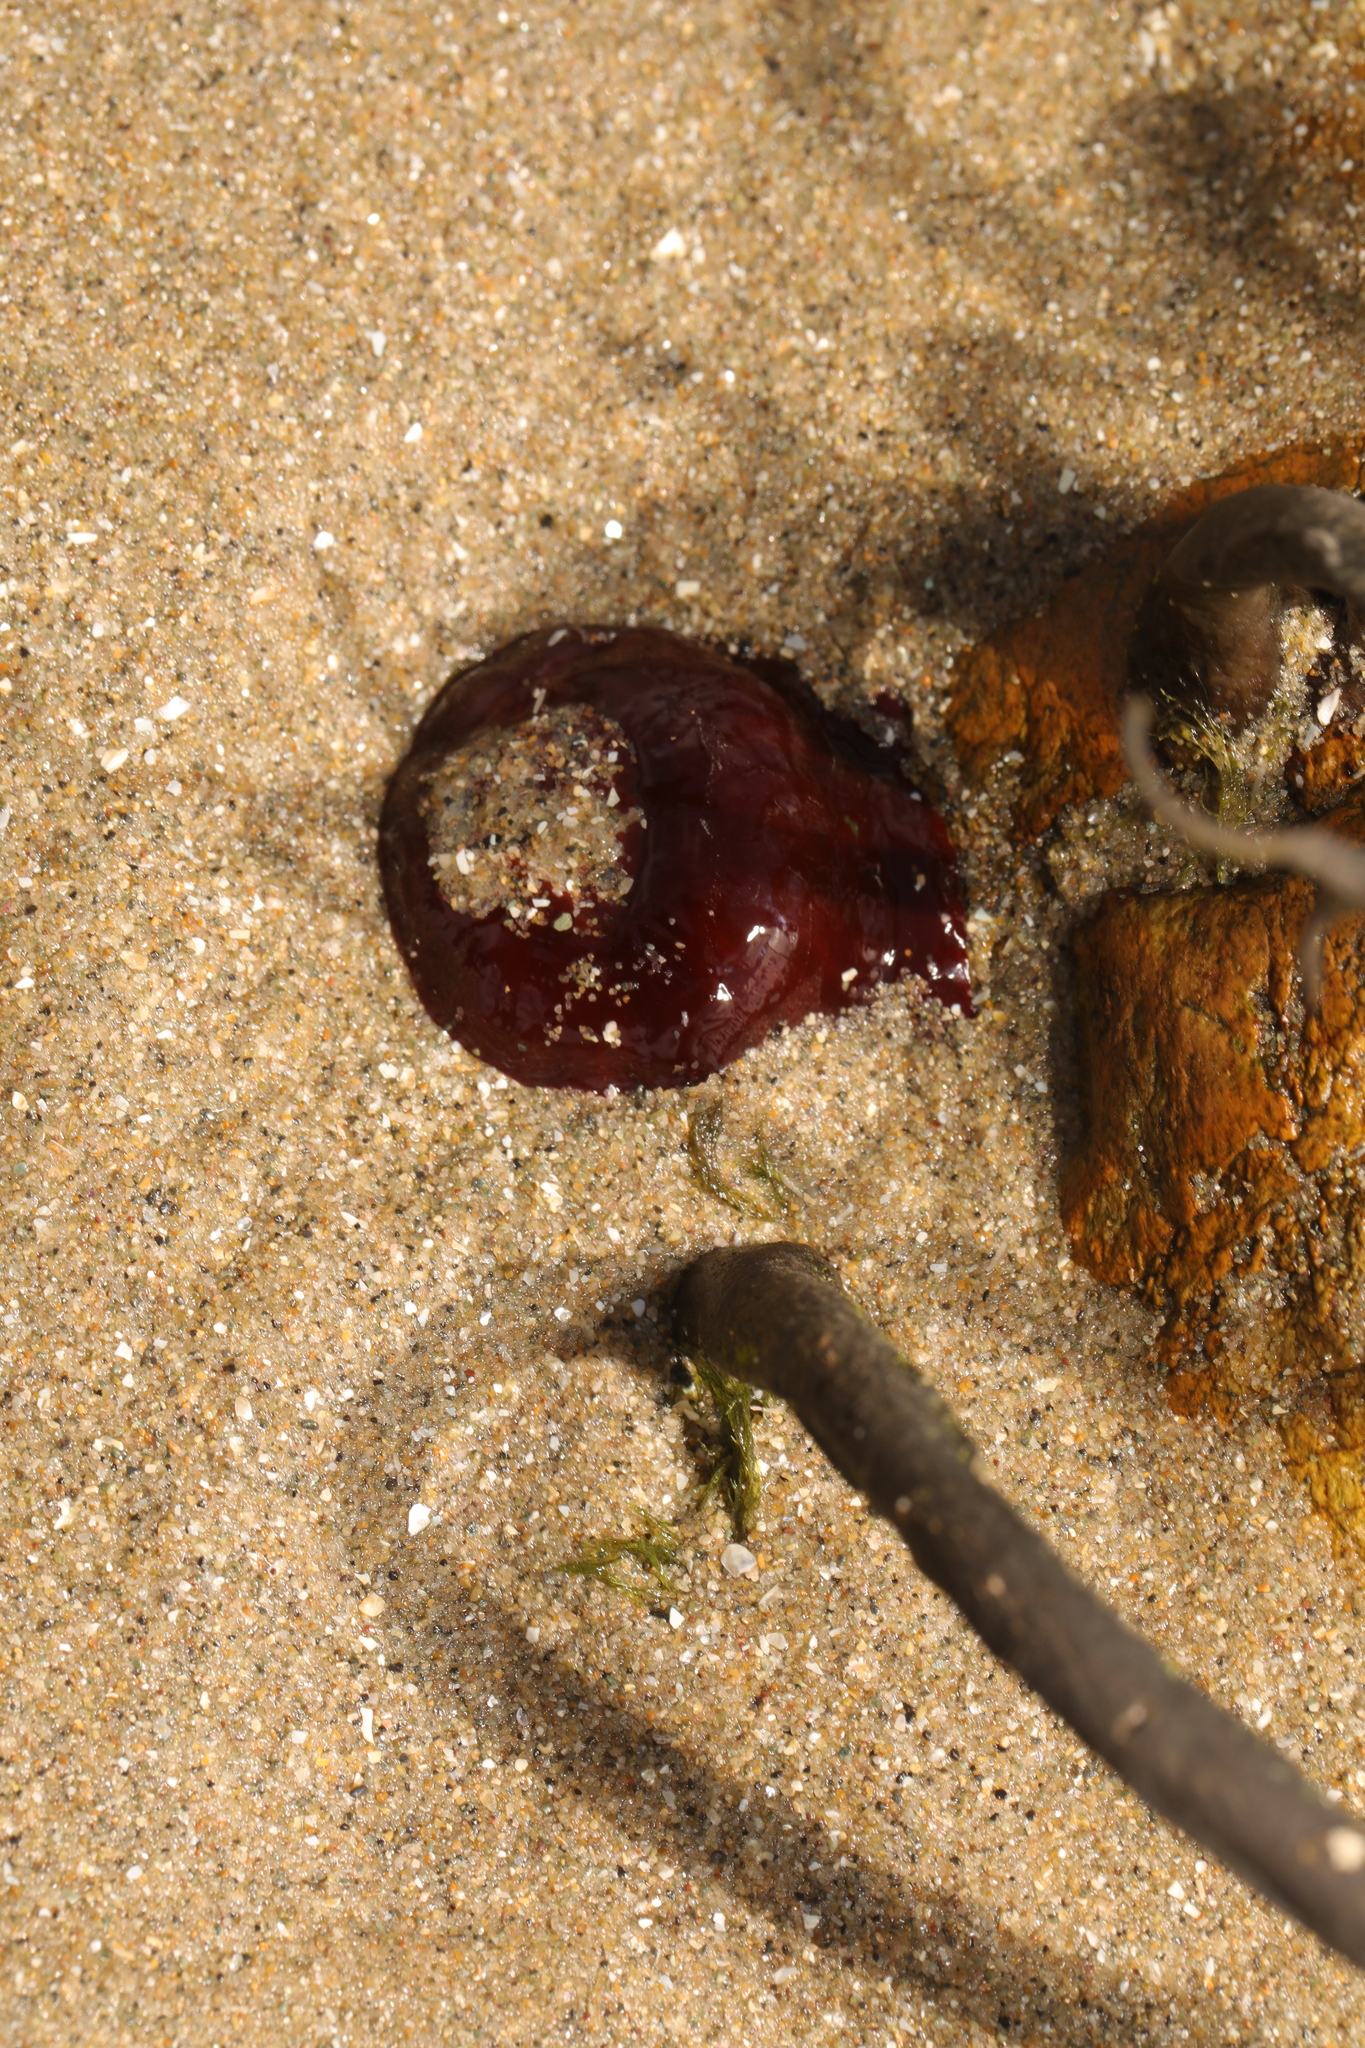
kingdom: Animalia
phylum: Cnidaria
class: Anthozoa
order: Actiniaria
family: Actiniidae
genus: Actinia
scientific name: Actinia equina
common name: Beadlet anemone
